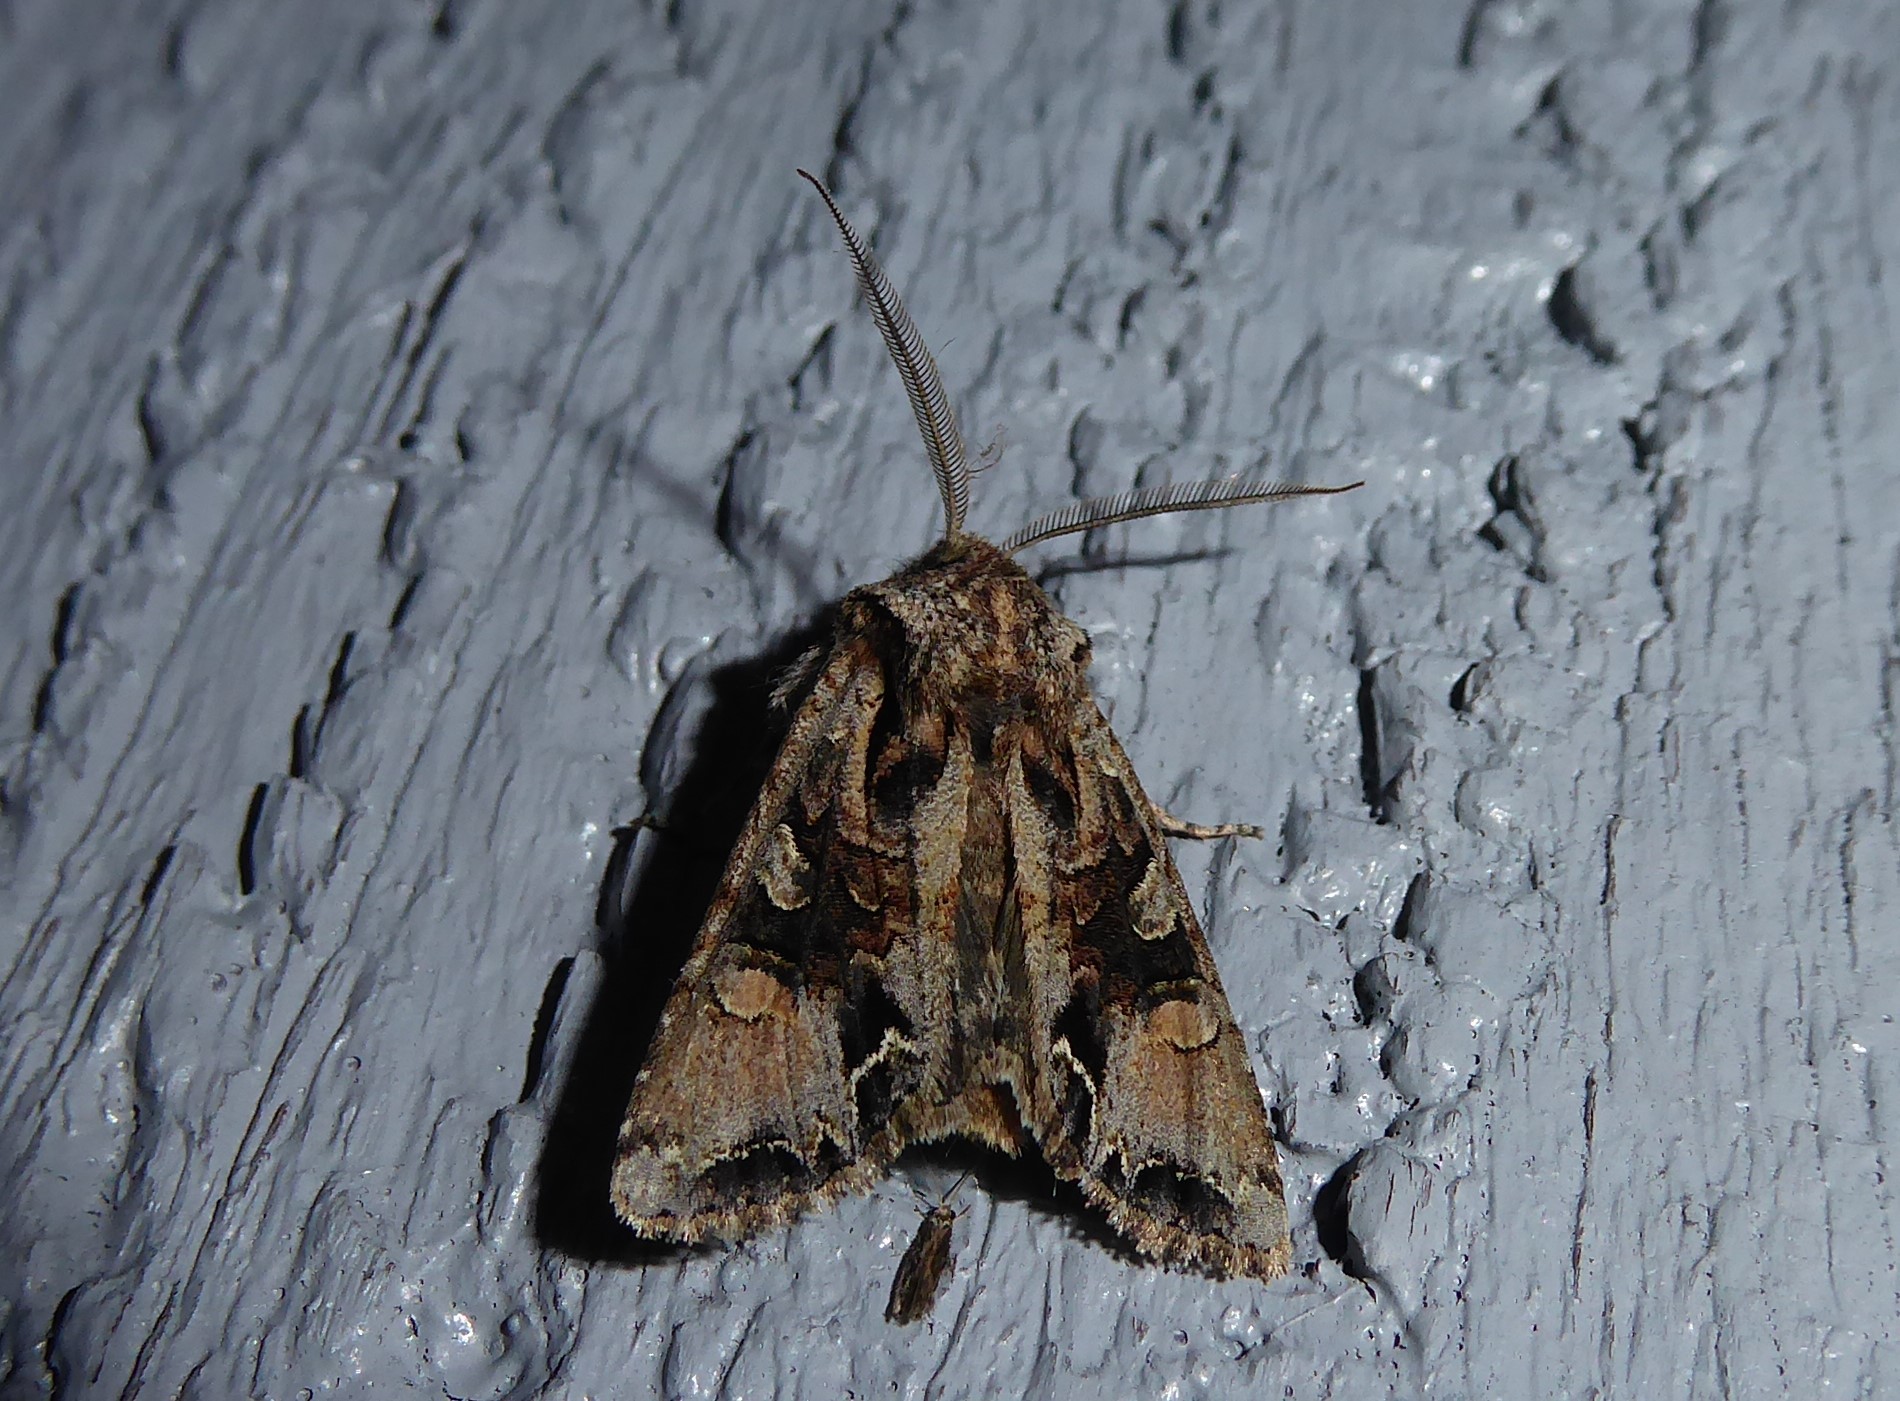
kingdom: Animalia
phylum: Arthropoda
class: Insecta
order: Lepidoptera
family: Noctuidae
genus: Ichneutica
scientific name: Ichneutica
